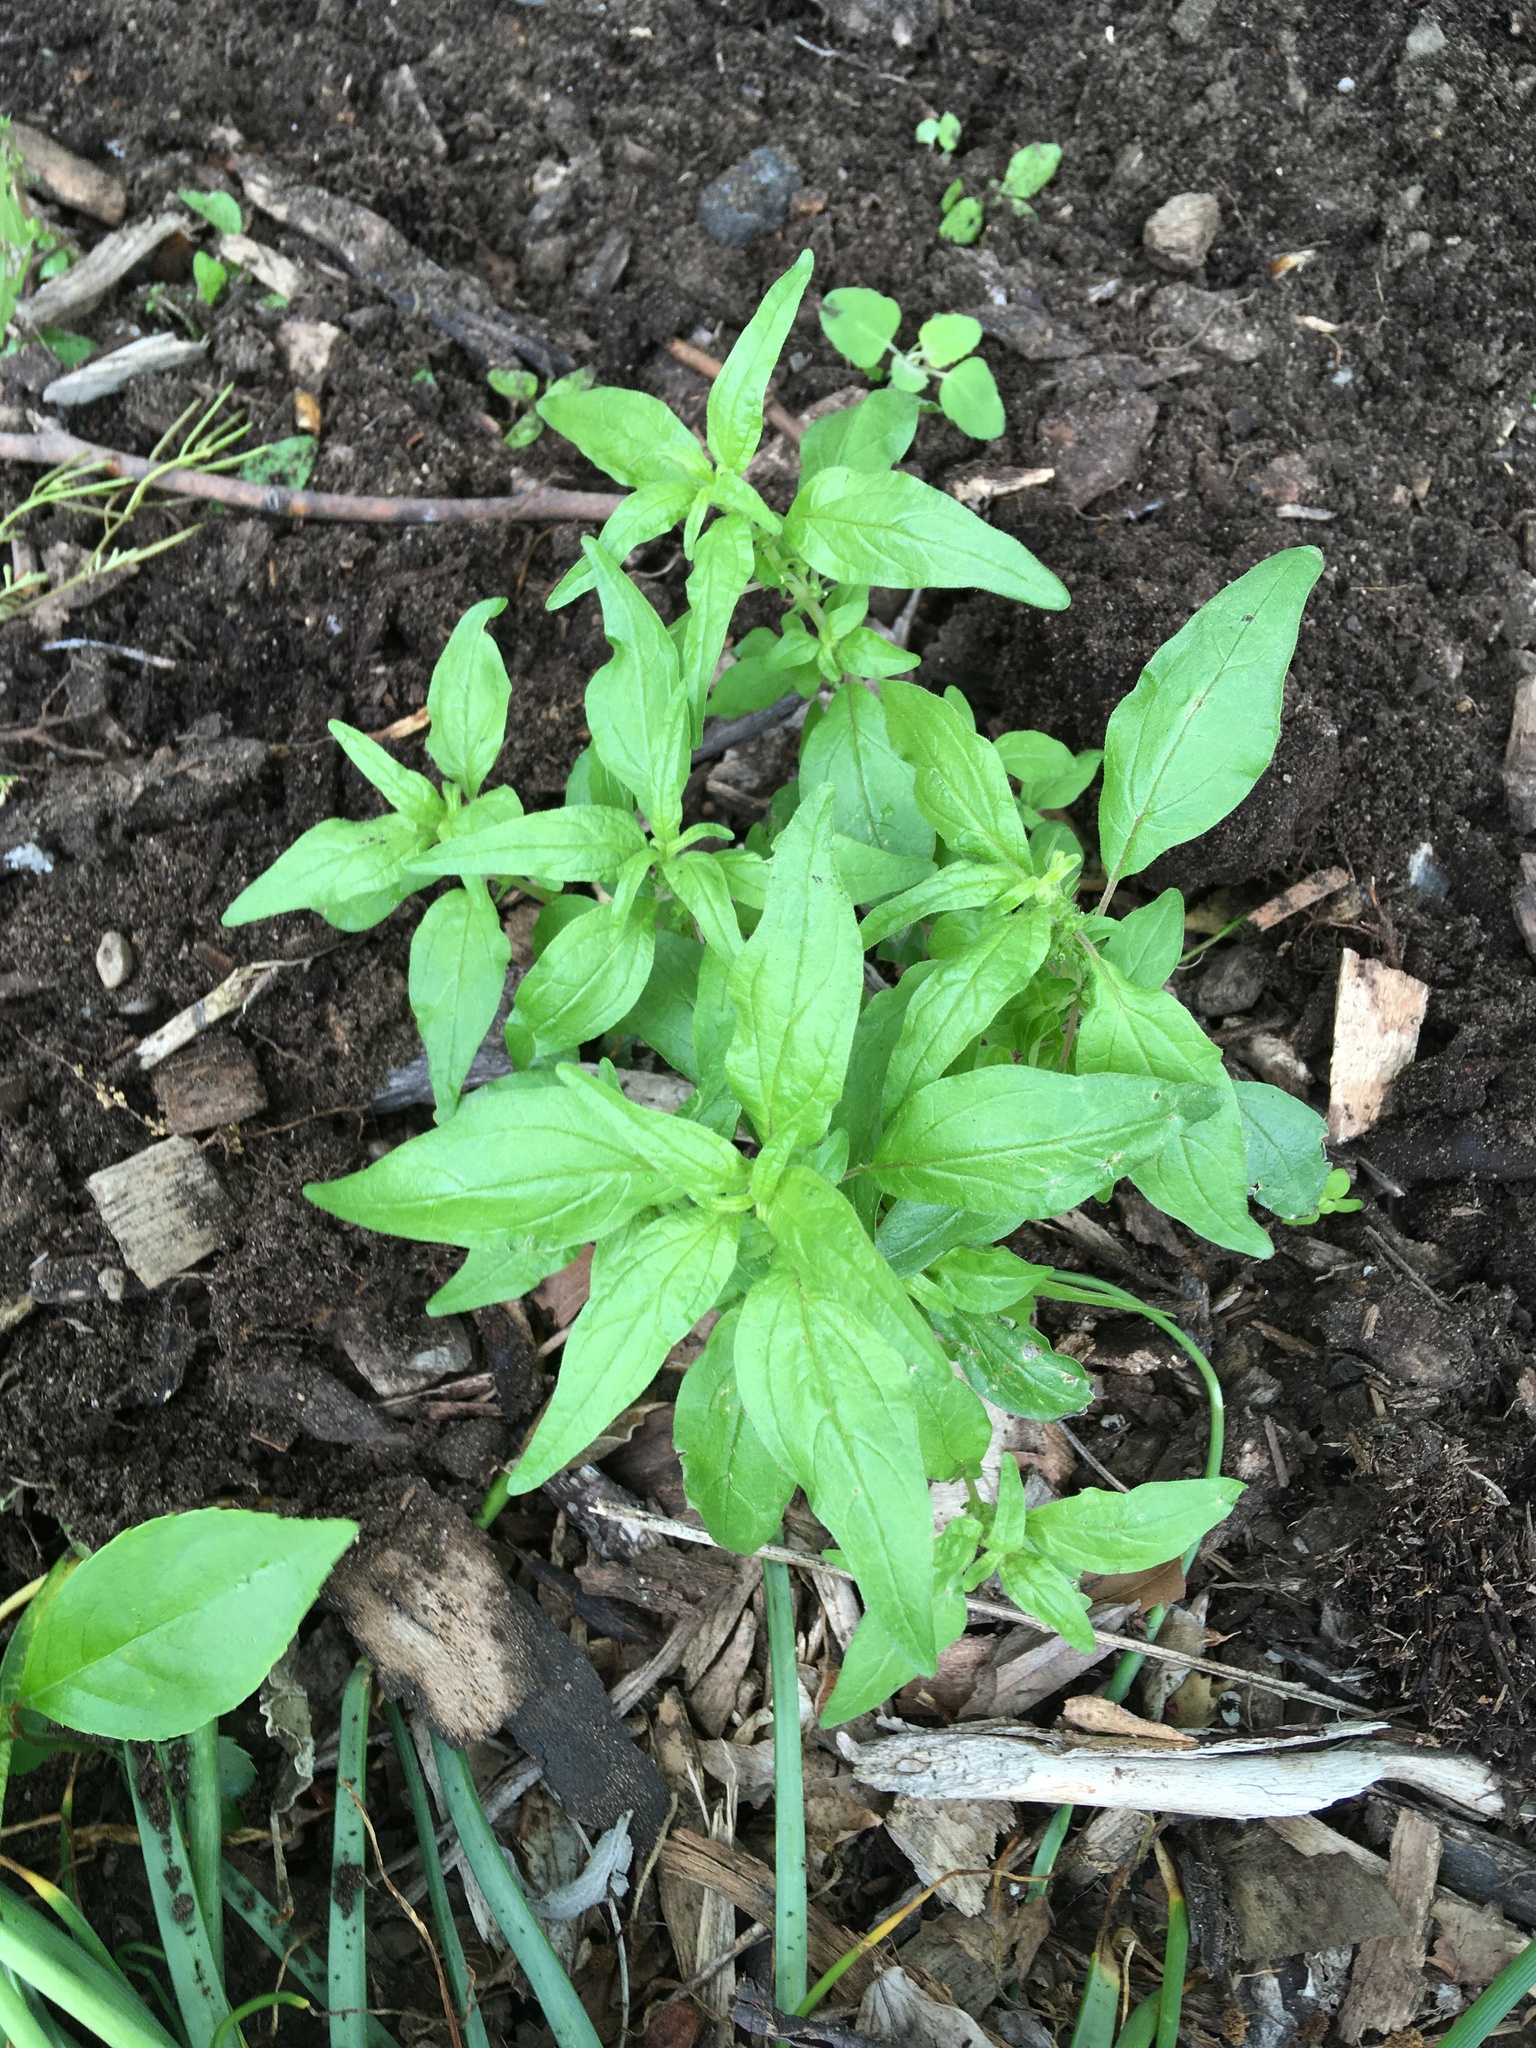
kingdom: Plantae
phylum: Tracheophyta
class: Magnoliopsida
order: Rosales
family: Urticaceae
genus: Parietaria
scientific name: Parietaria pensylvanica
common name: Pennsylvania pellitory
